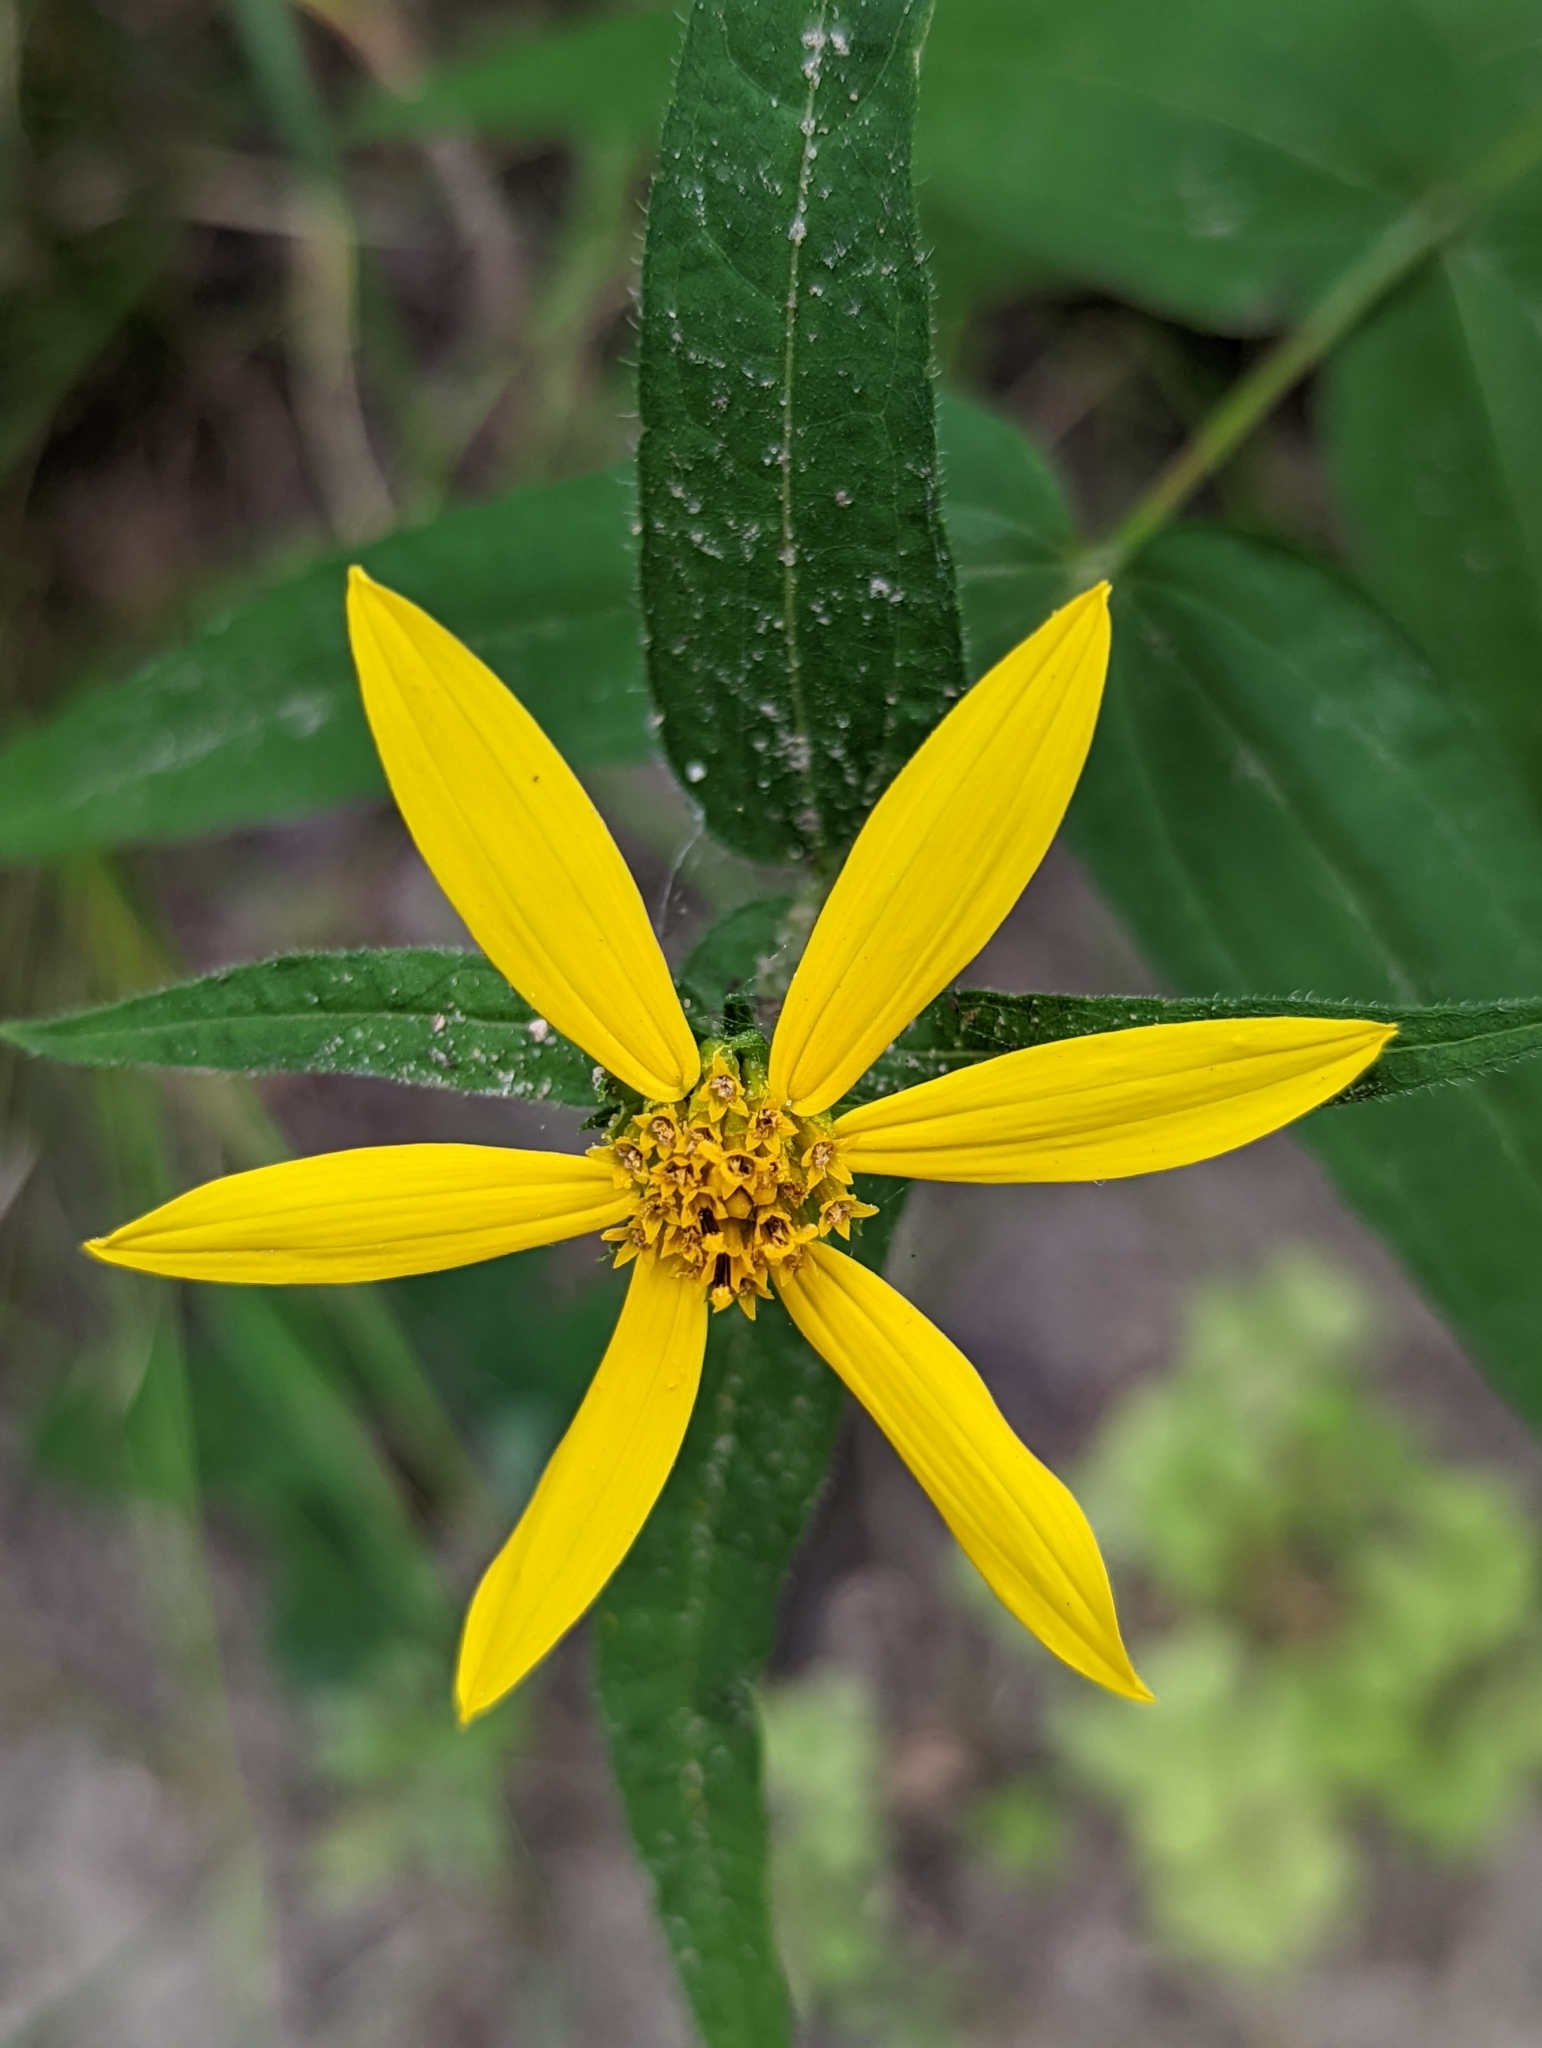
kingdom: Plantae
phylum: Tracheophyta
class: Magnoliopsida
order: Asterales
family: Asteraceae
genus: Helianthus
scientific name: Helianthus divaricatus
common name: Divergent sunflower
